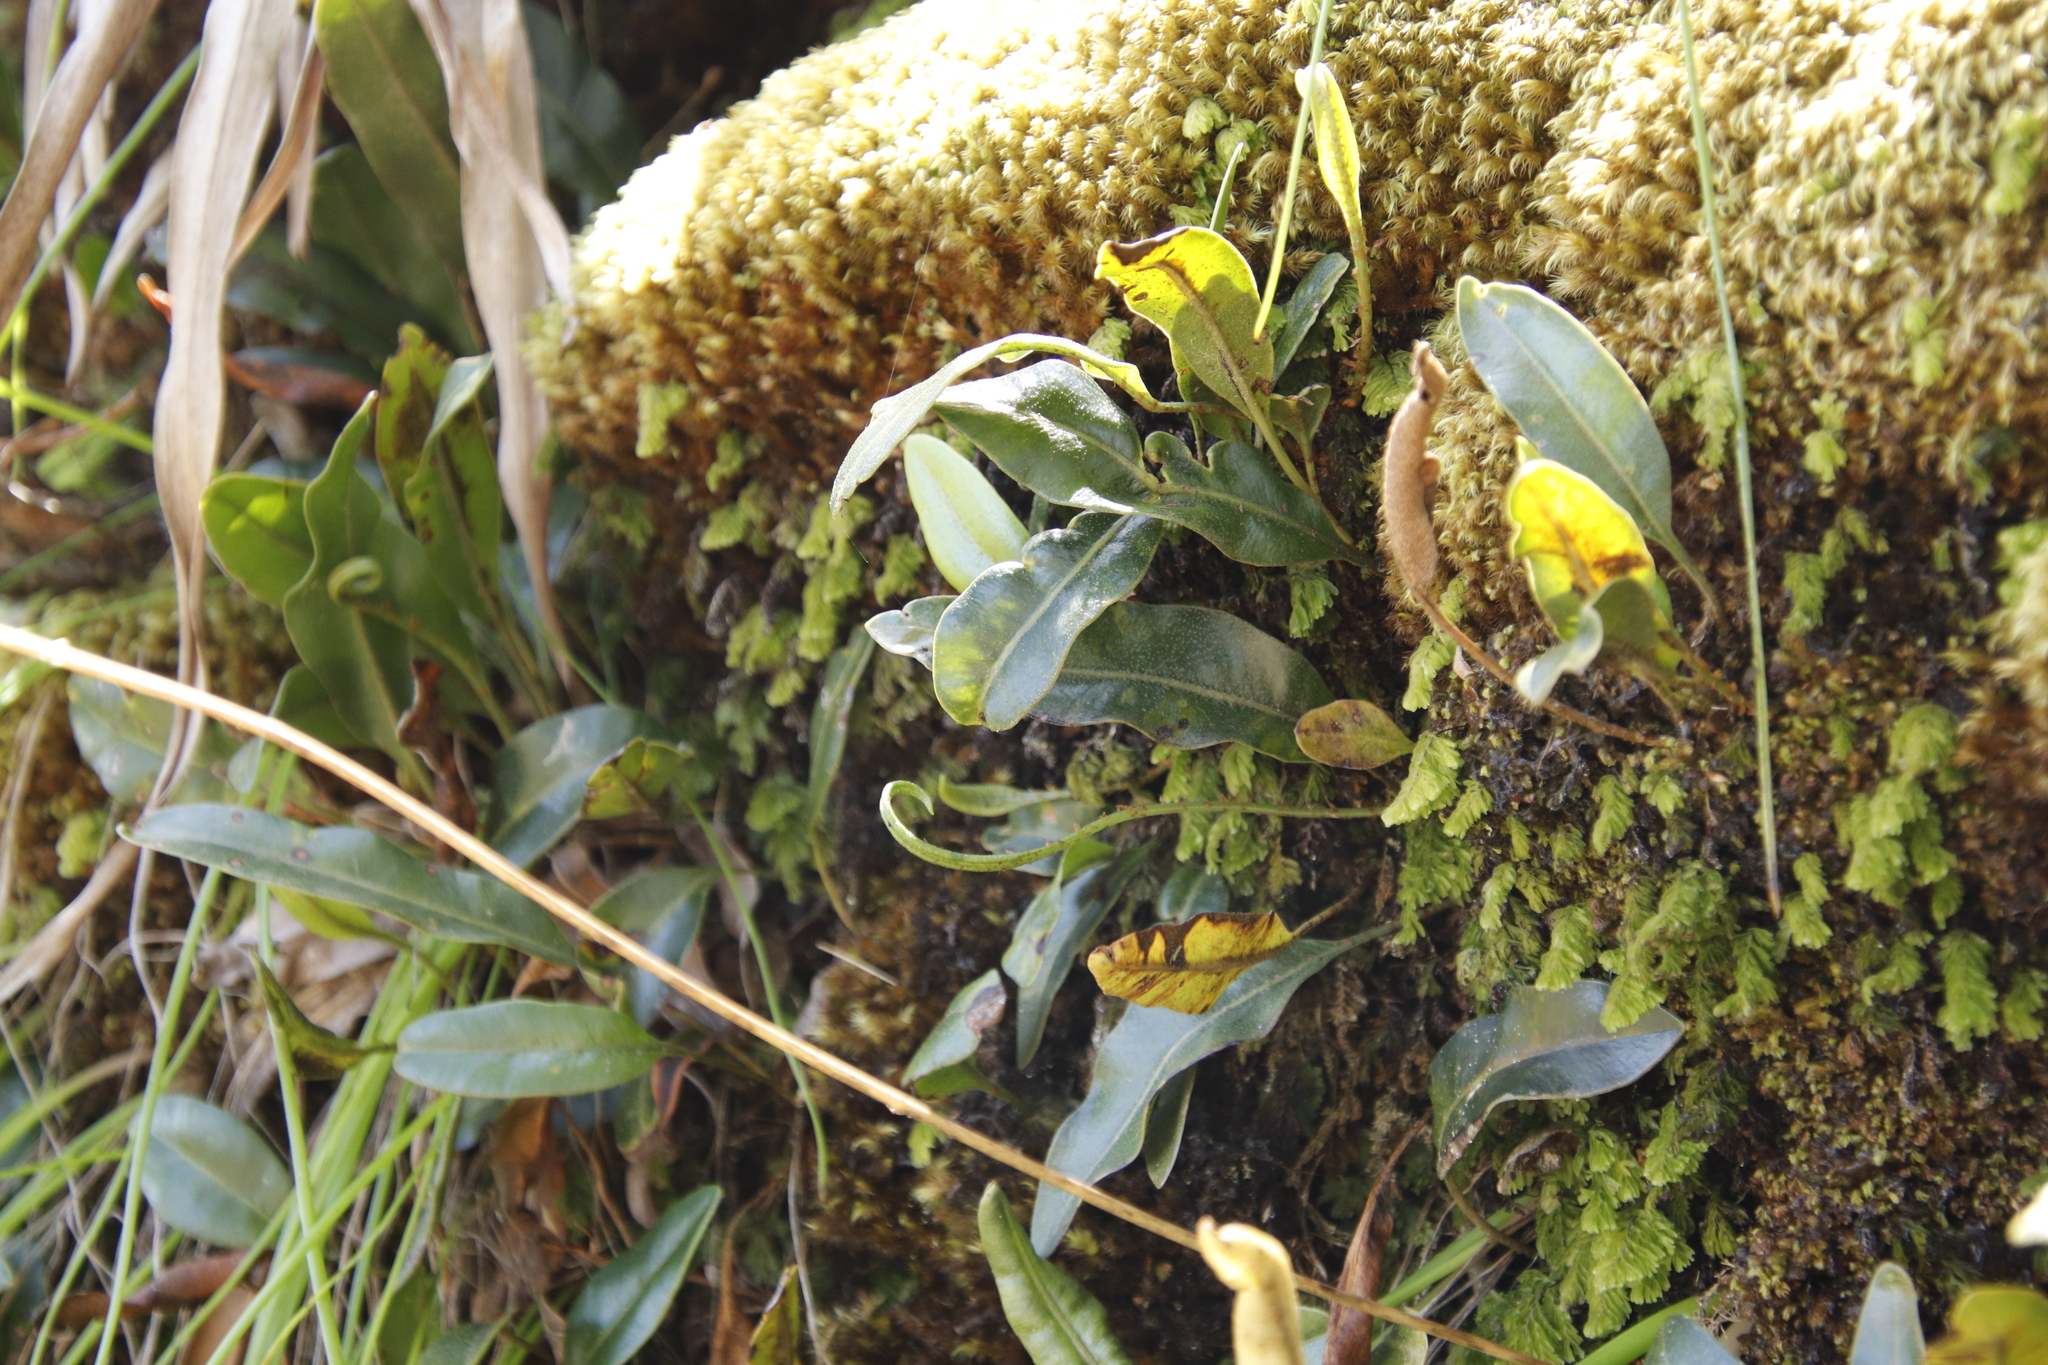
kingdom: Plantae
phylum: Tracheophyta
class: Polypodiopsida
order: Polypodiales
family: Dryopteridaceae
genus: Elaphoglossum
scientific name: Elaphoglossum conforme
